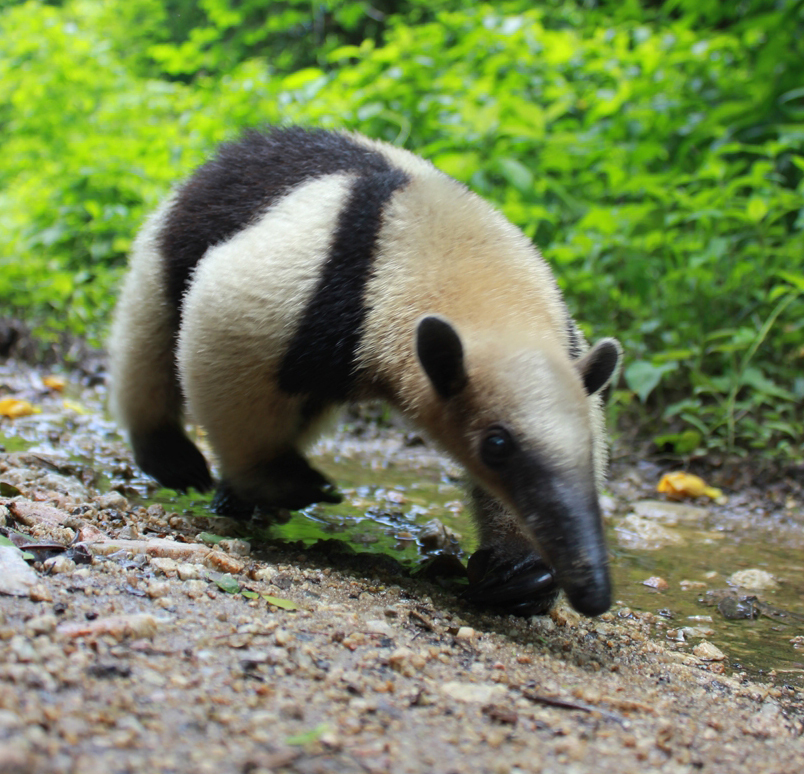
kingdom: Animalia
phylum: Chordata
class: Mammalia
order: Pilosa
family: Myrmecophagidae
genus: Tamandua
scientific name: Tamandua mexicana
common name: Northern tamandua
